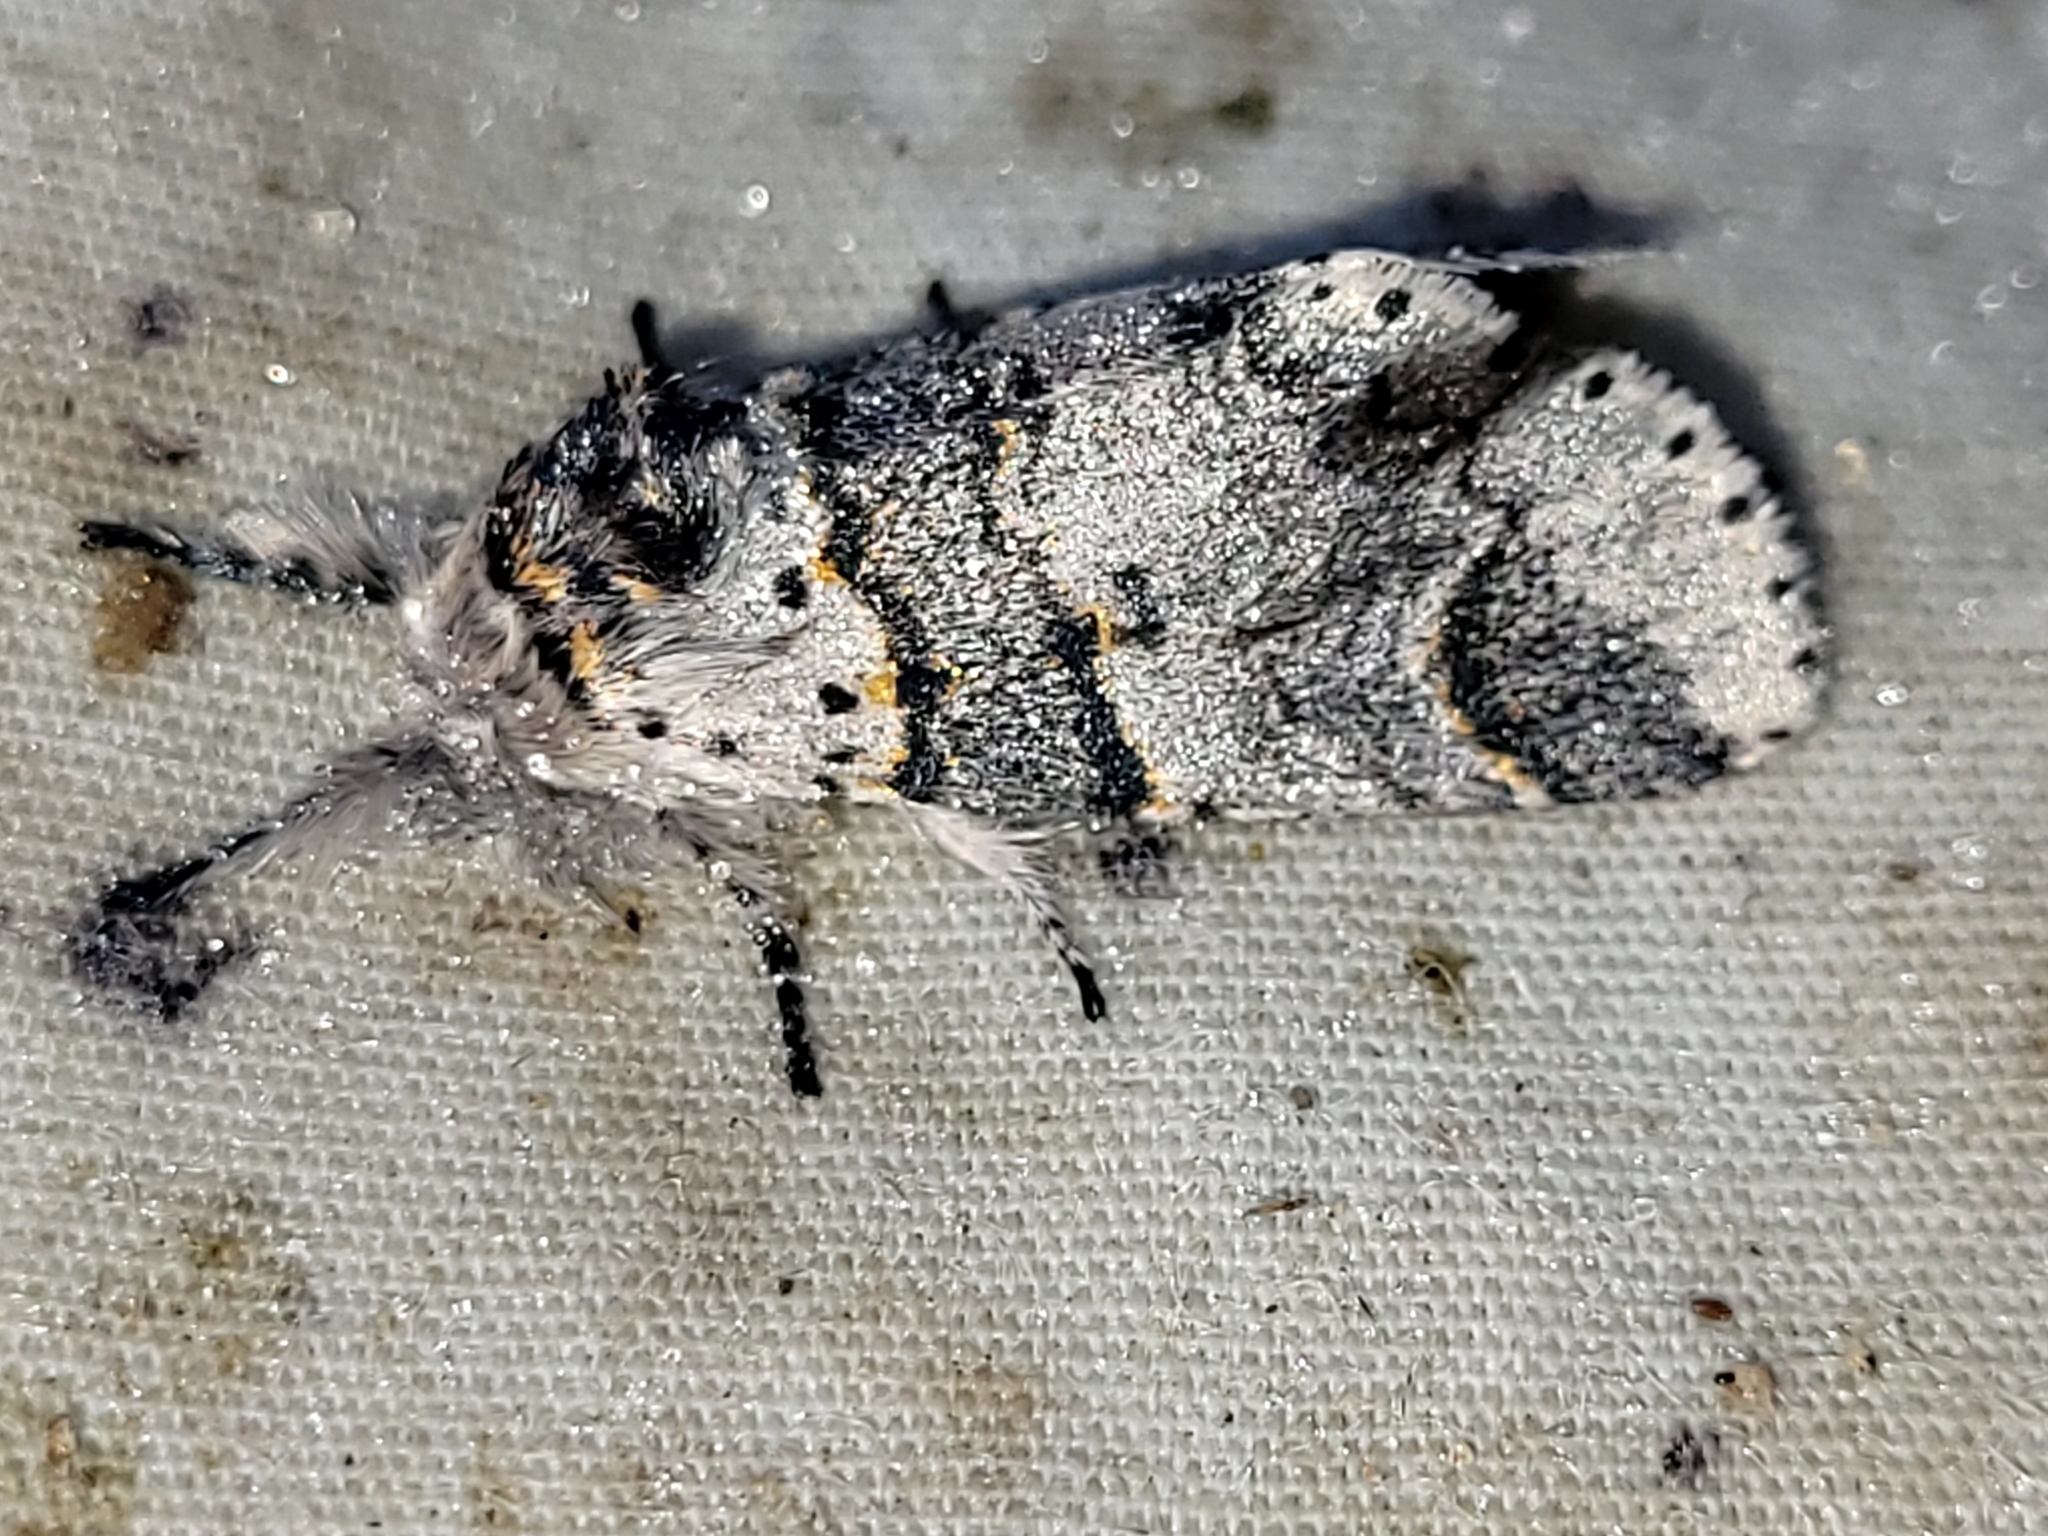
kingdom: Animalia
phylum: Arthropoda
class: Insecta
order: Lepidoptera
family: Notodontidae
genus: Furcula
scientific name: Furcula occidentalis
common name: Western furcula moth
